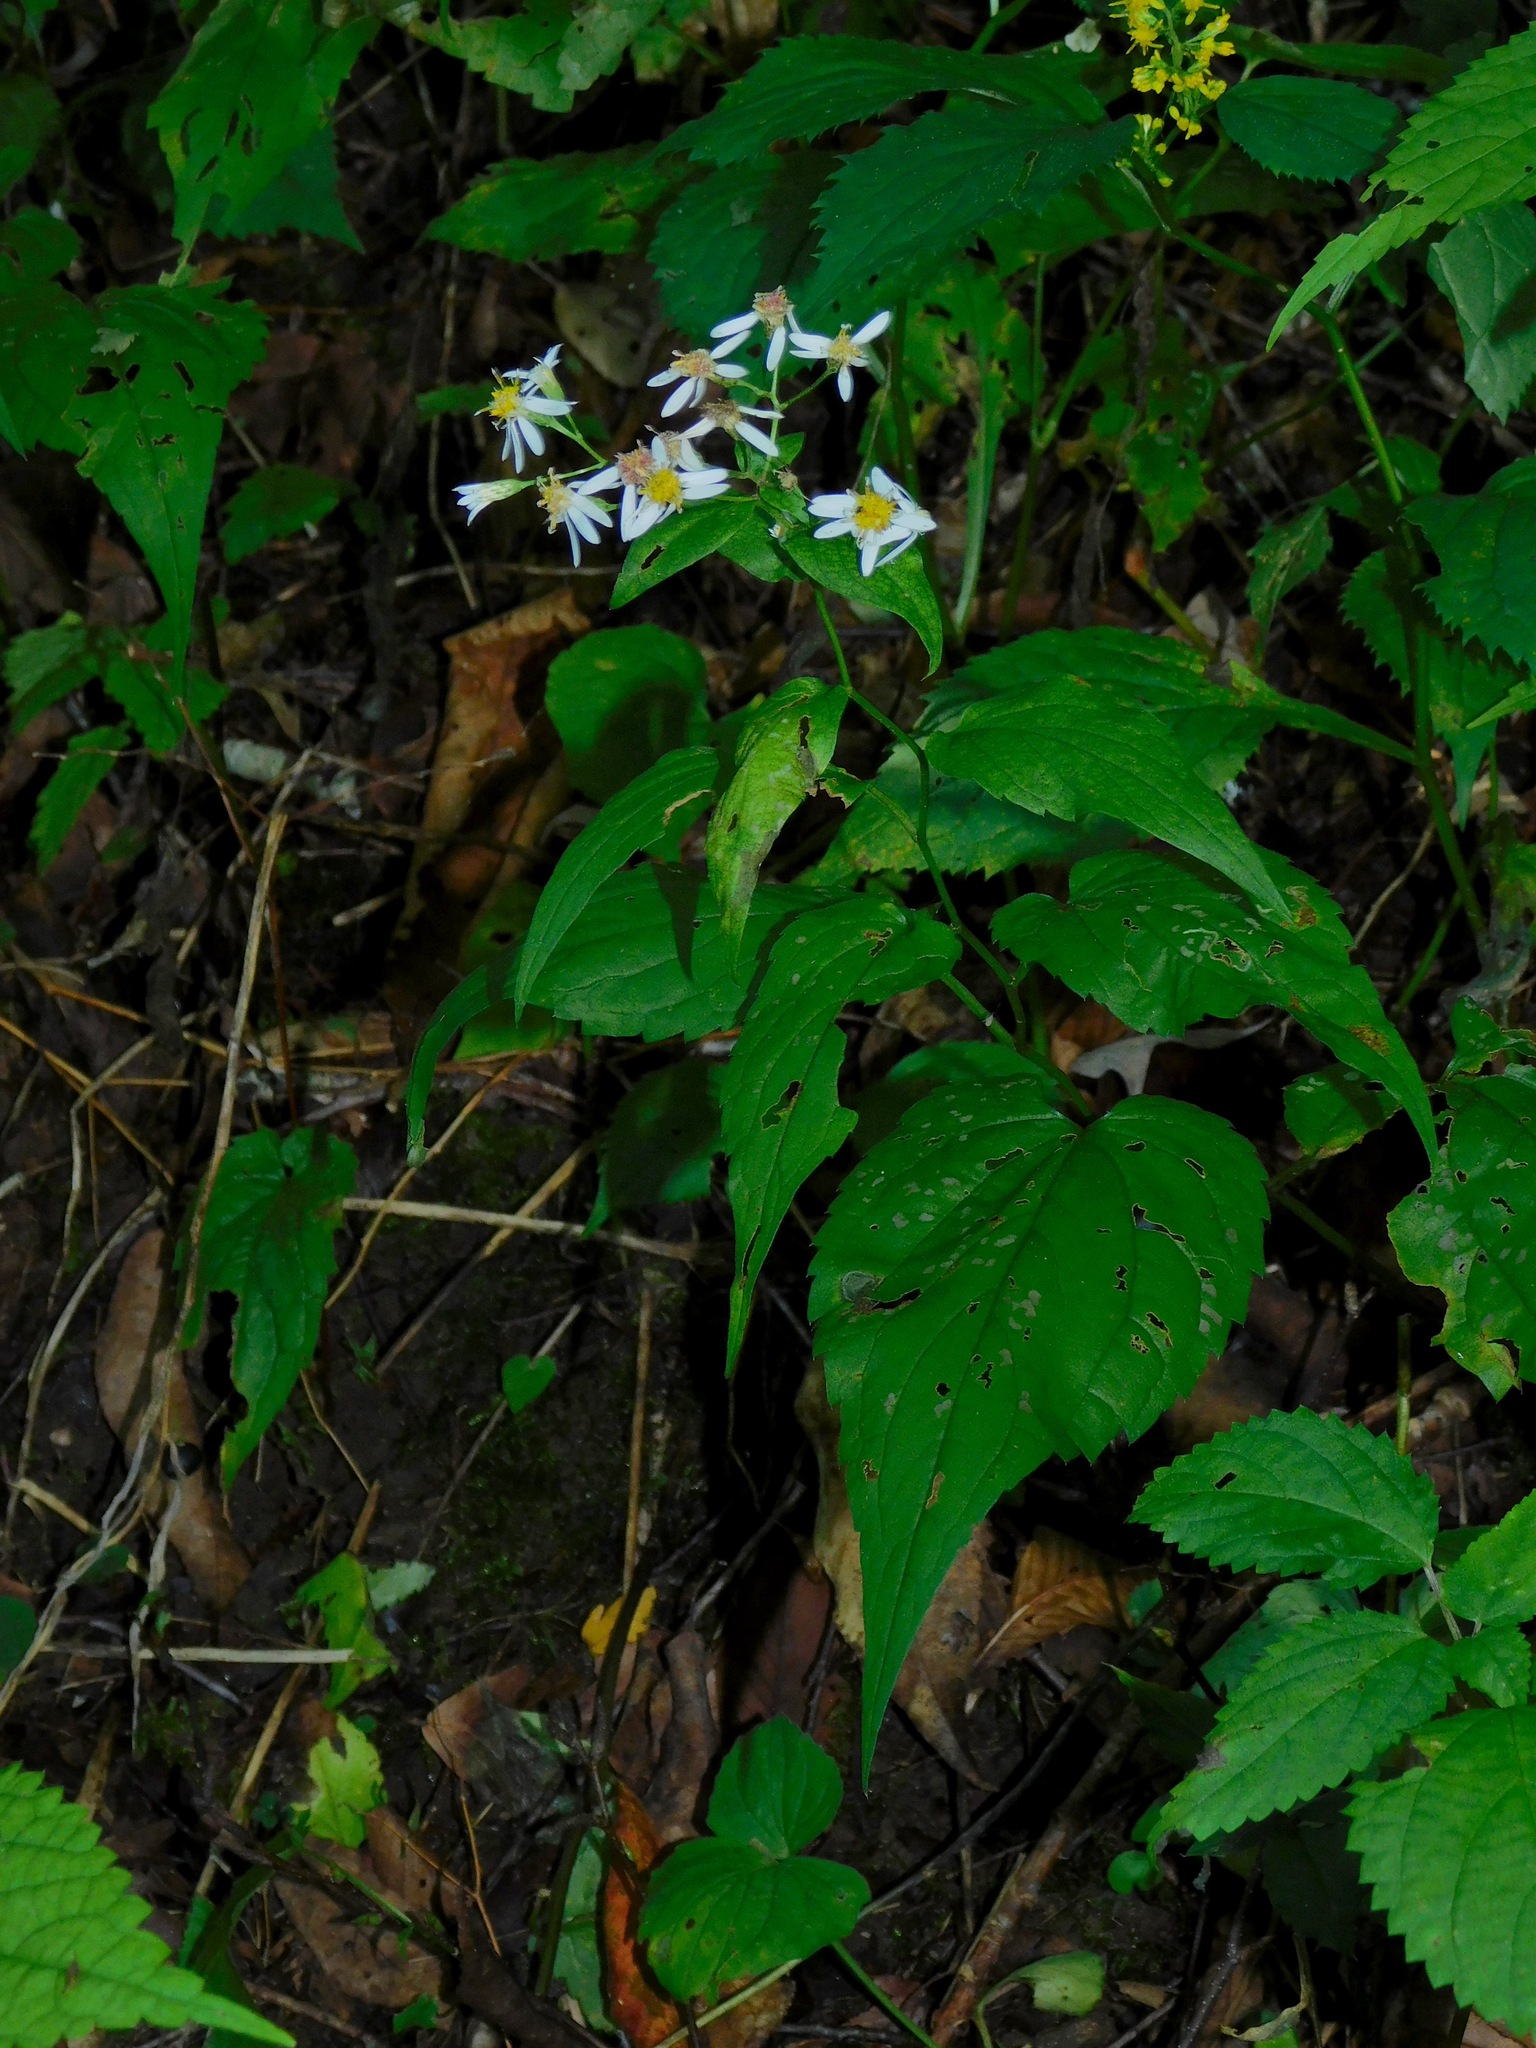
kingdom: Plantae
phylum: Tracheophyta
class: Magnoliopsida
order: Asterales
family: Asteraceae
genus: Eurybia
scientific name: Eurybia divaricata
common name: White wood aster
